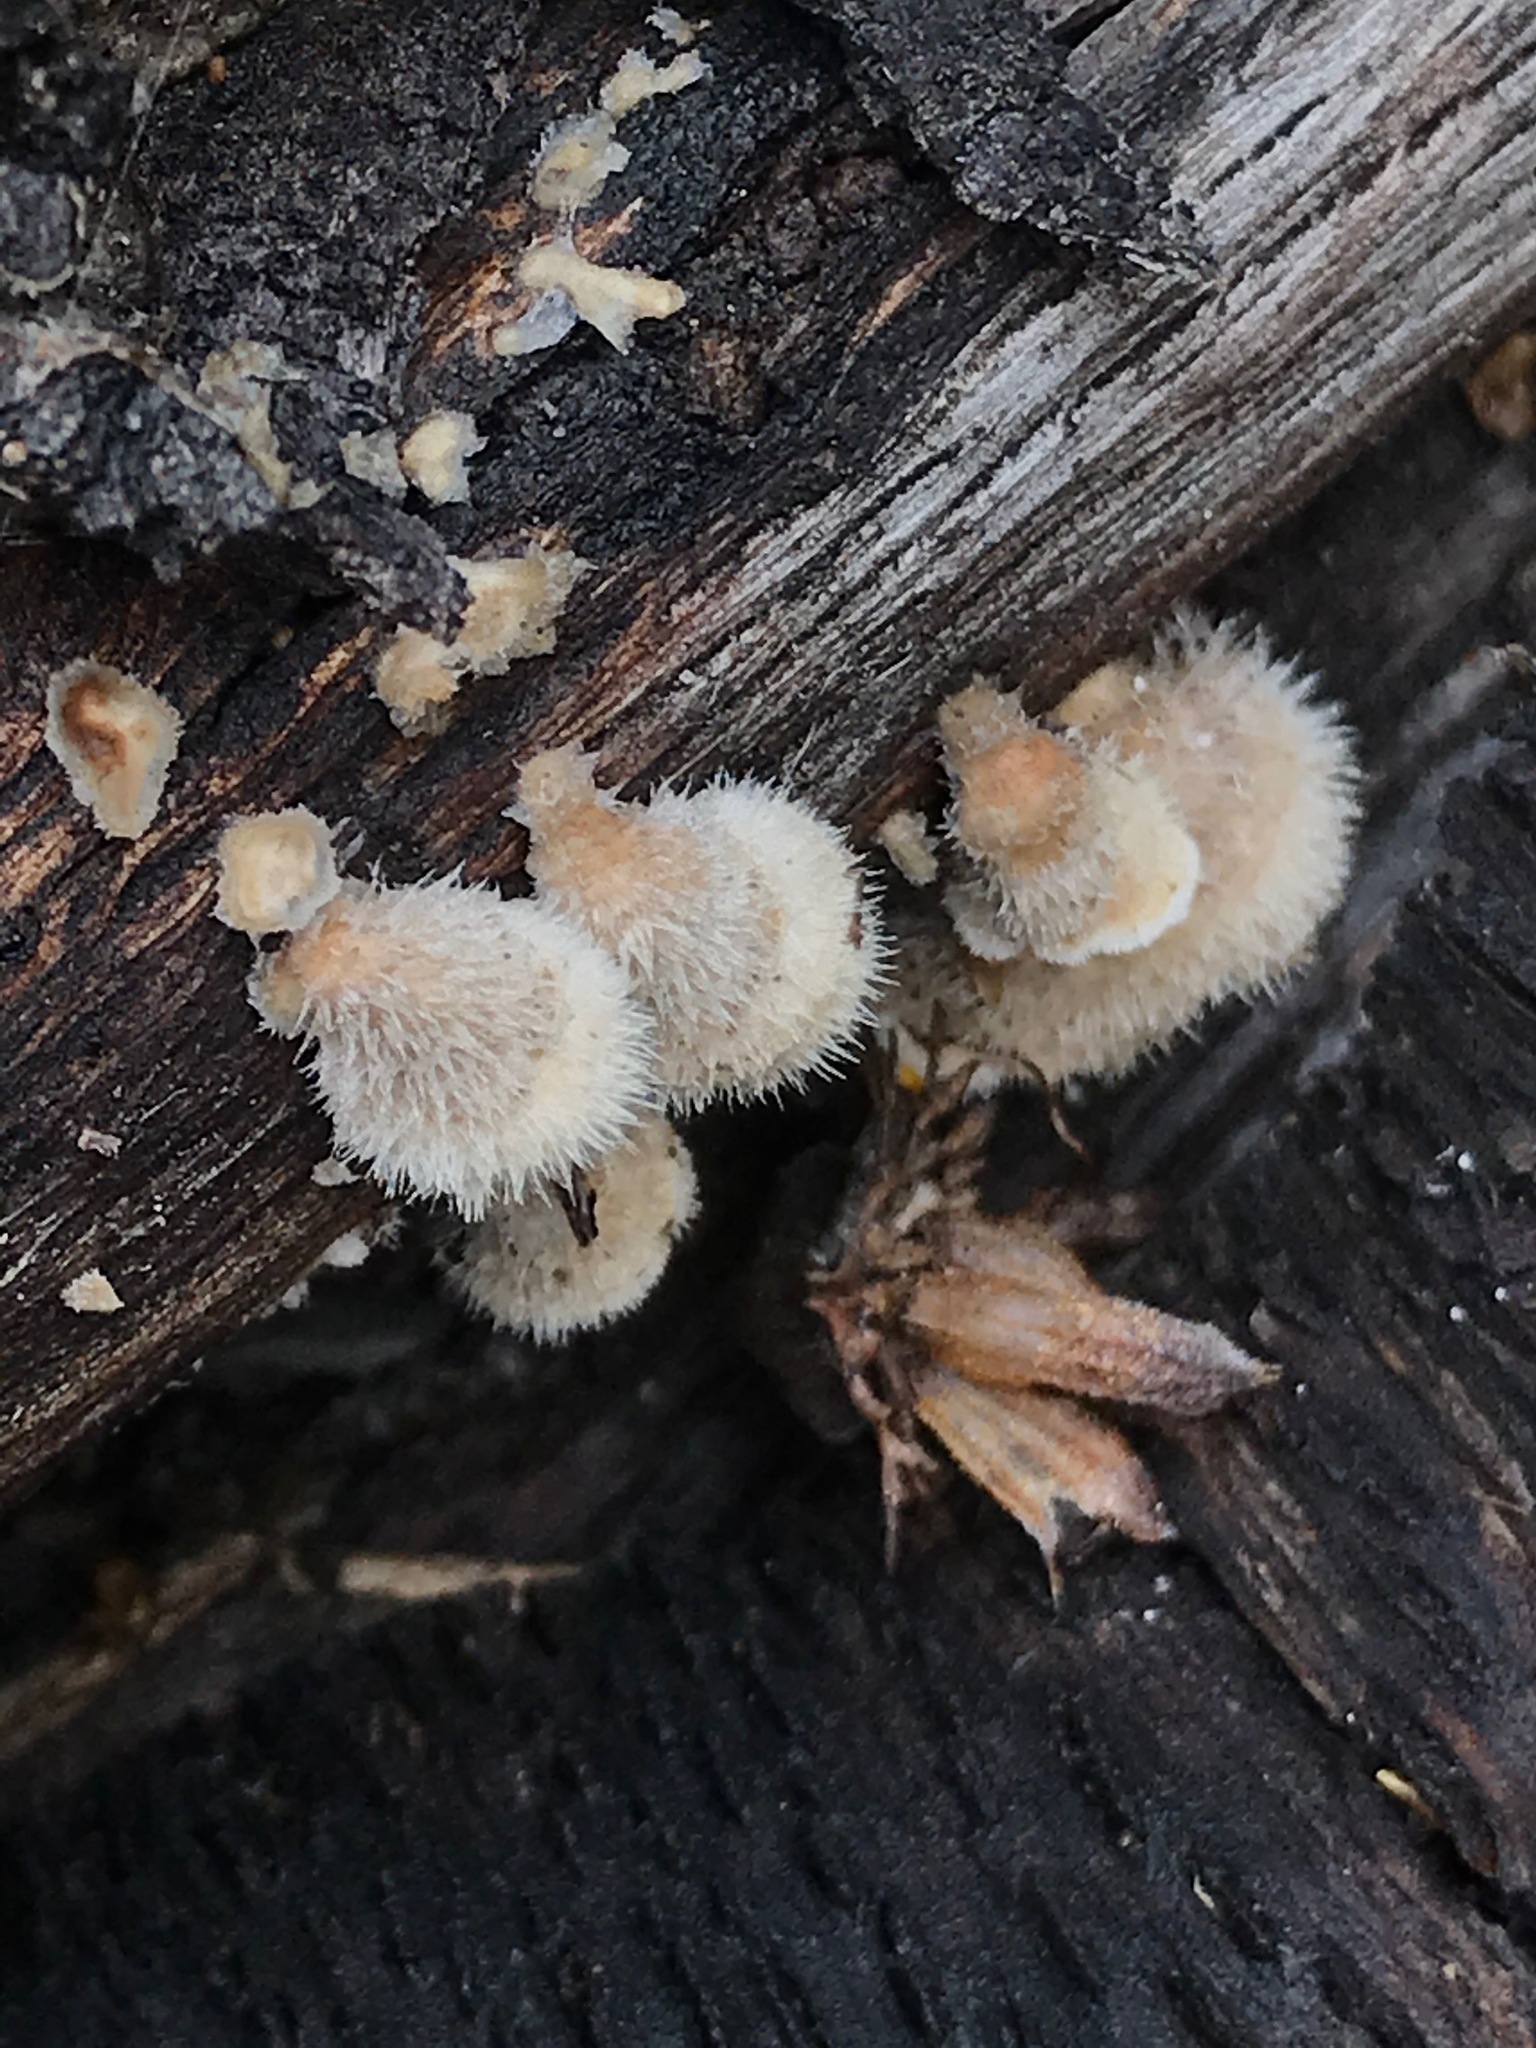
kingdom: Fungi
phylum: Basidiomycota
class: Agaricomycetes
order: Russulales
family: Stereaceae
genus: Stereum
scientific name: Stereum ochraceoflavum
